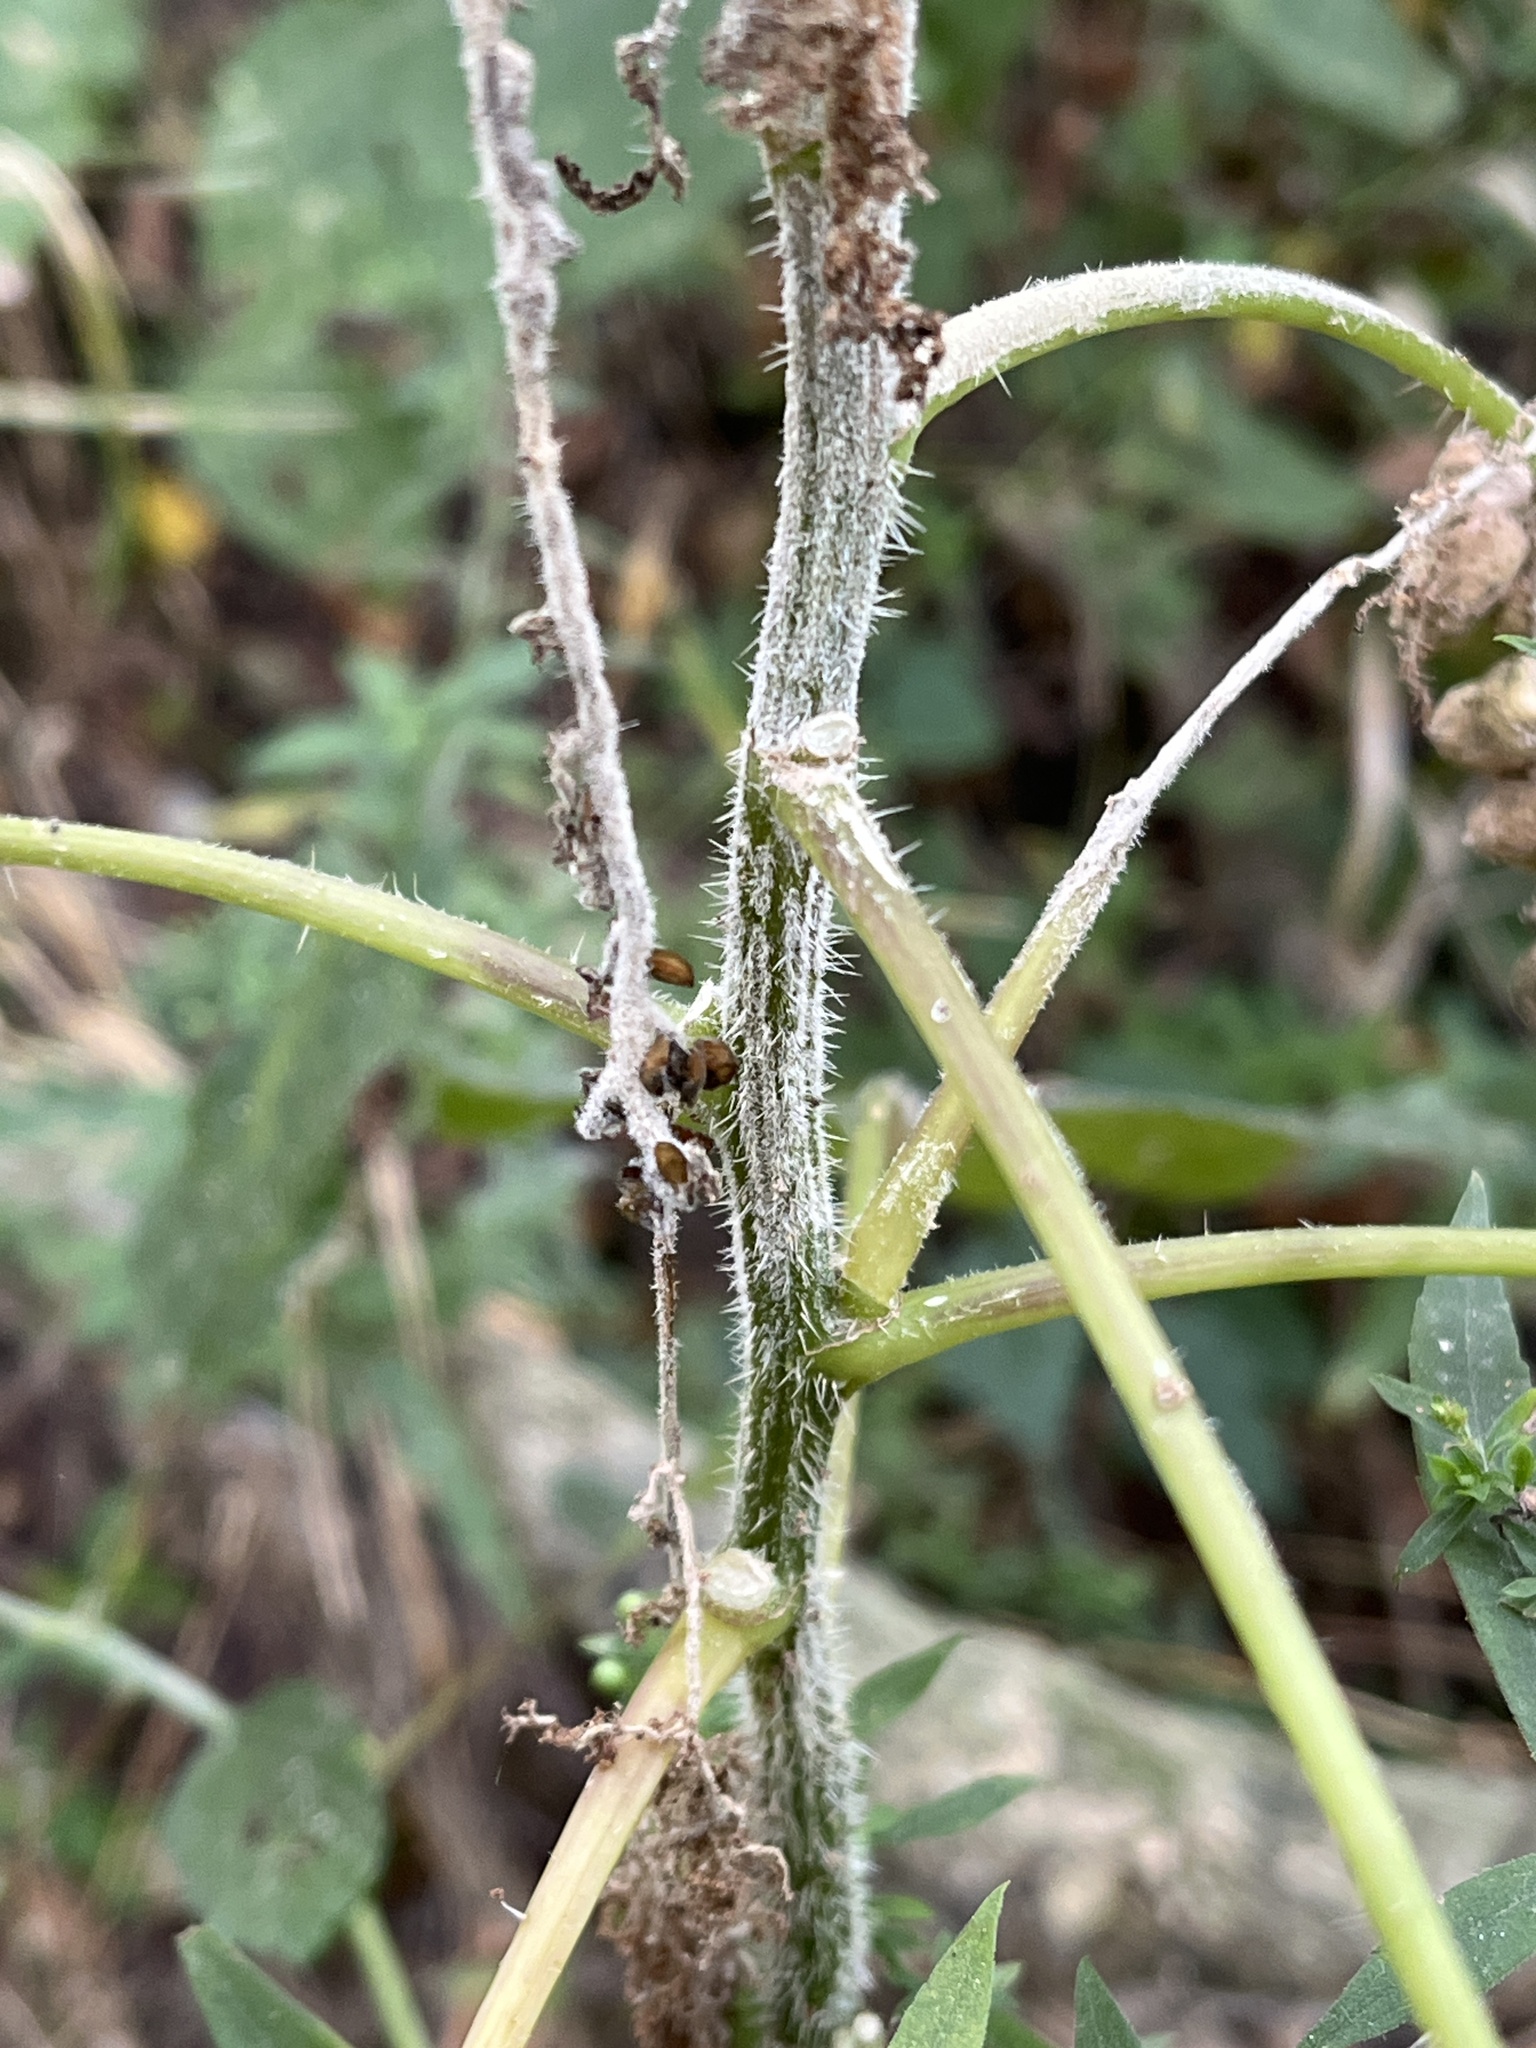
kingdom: Plantae
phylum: Tracheophyta
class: Magnoliopsida
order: Rosales
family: Urticaceae
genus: Laportea
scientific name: Laportea canadensis
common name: Canada nettle
